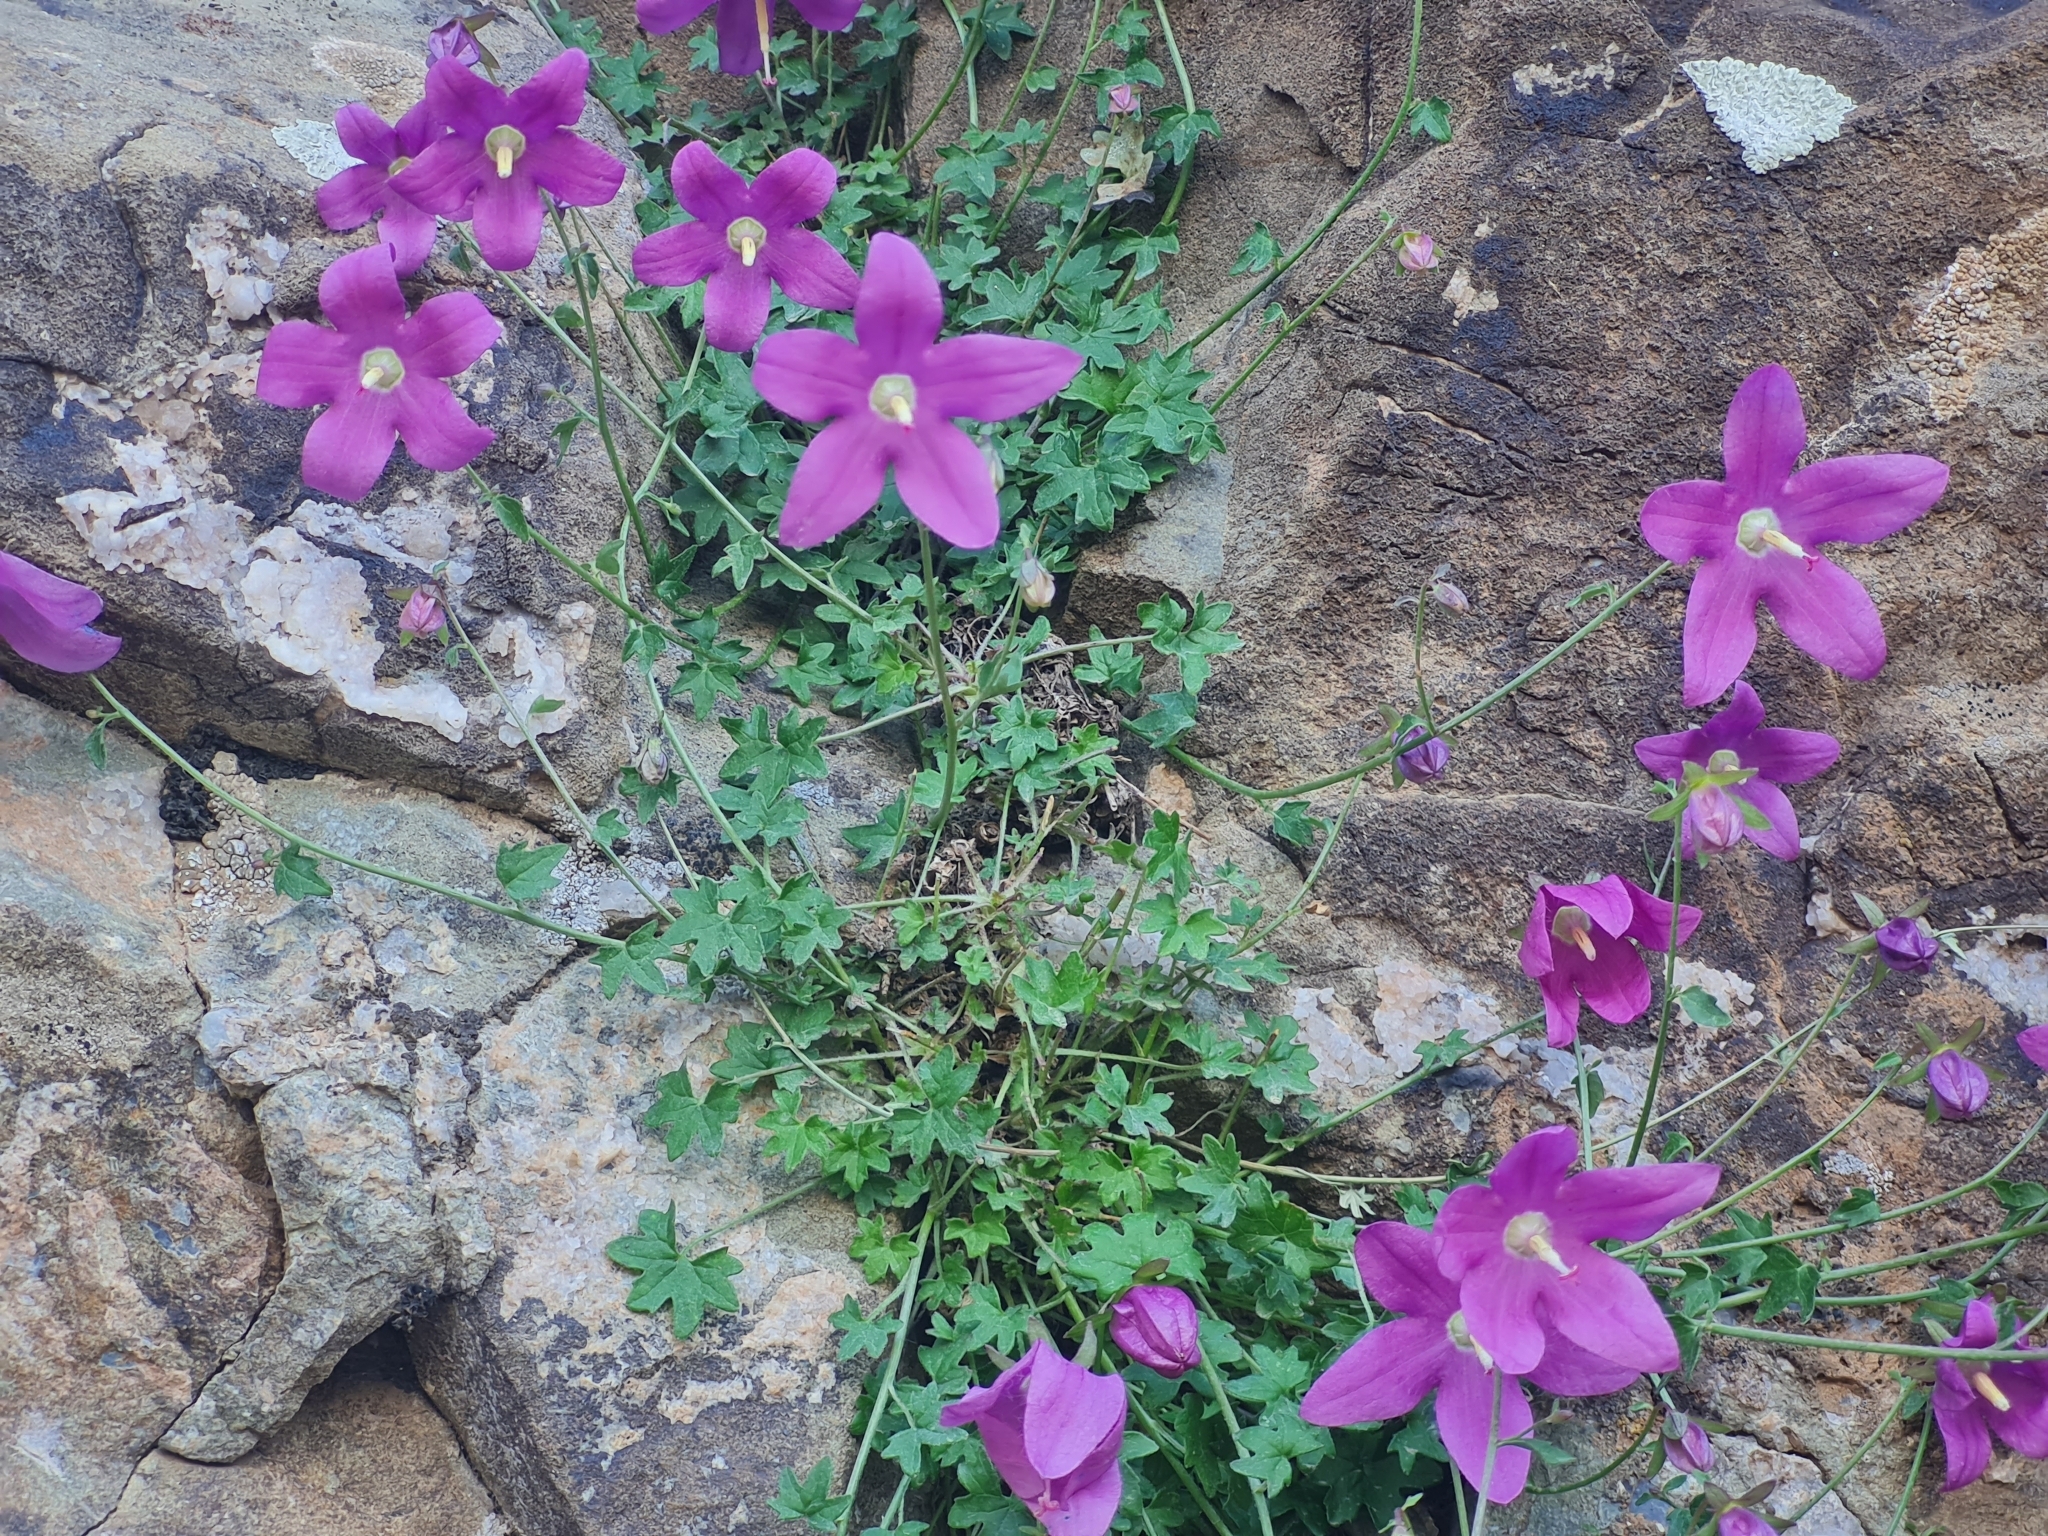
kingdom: Plantae
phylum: Tracheophyta
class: Magnoliopsida
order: Asterales
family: Campanulaceae
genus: Campanula
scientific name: Campanula zangezura
